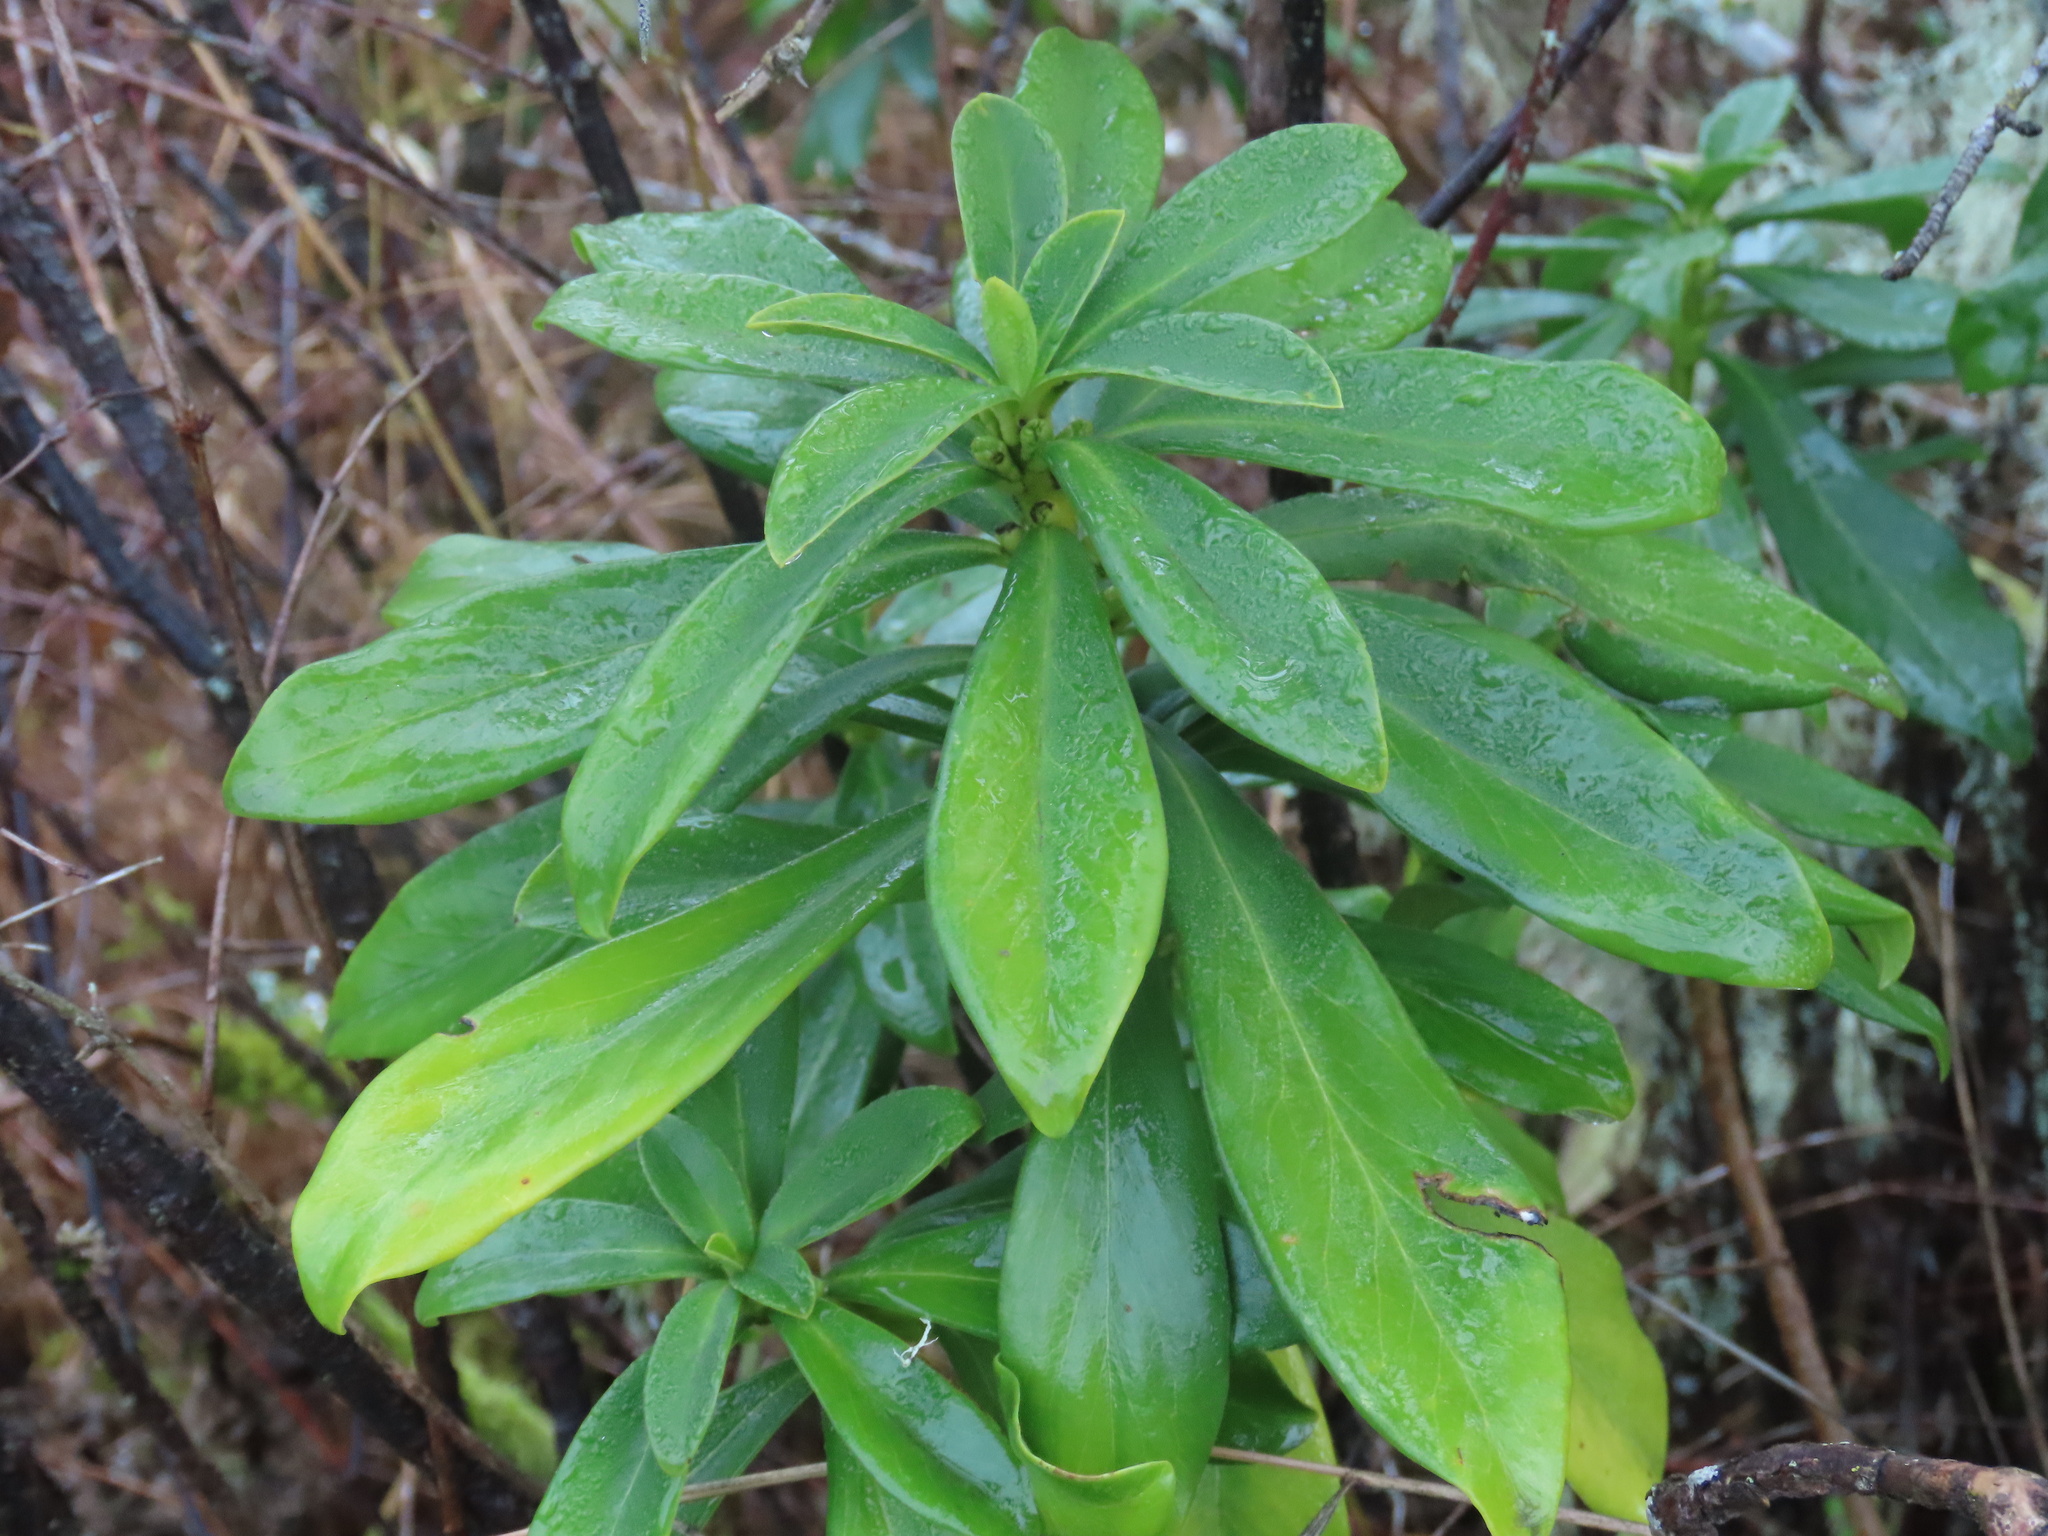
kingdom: Plantae
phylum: Tracheophyta
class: Magnoliopsida
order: Malvales
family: Thymelaeaceae
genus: Daphne
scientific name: Daphne laureola
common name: Spurge-laurel
